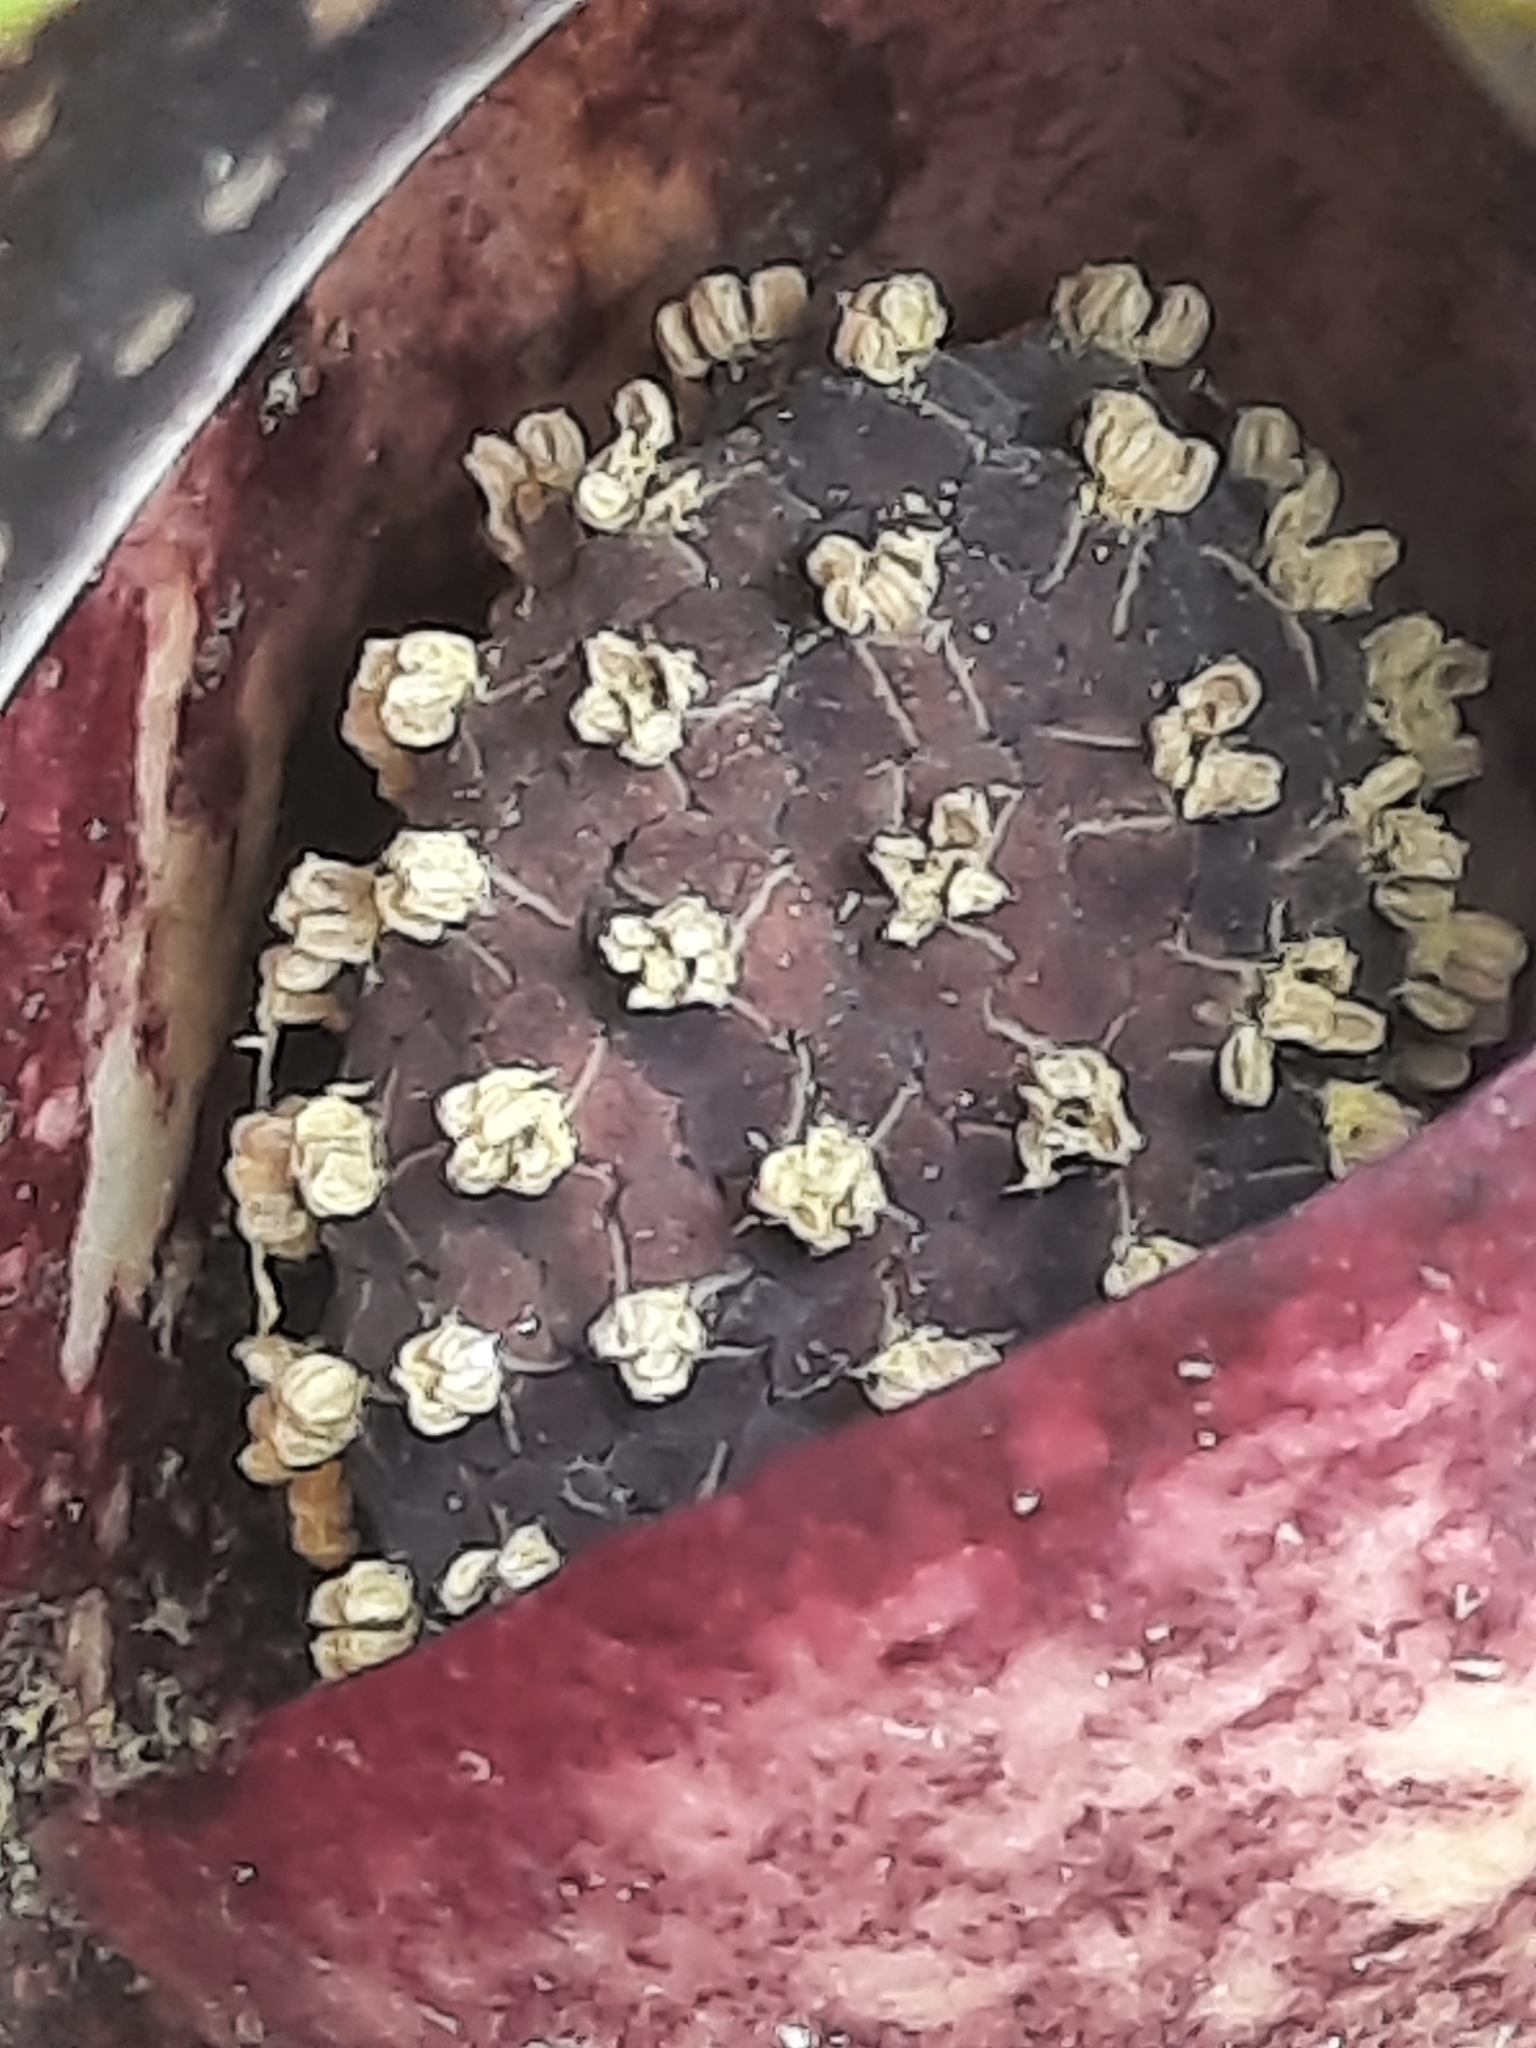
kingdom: Plantae
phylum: Tracheophyta
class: Liliopsida
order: Alismatales
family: Araceae
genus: Symplocarpus
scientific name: Symplocarpus foetidus
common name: Eastern skunk cabbage
